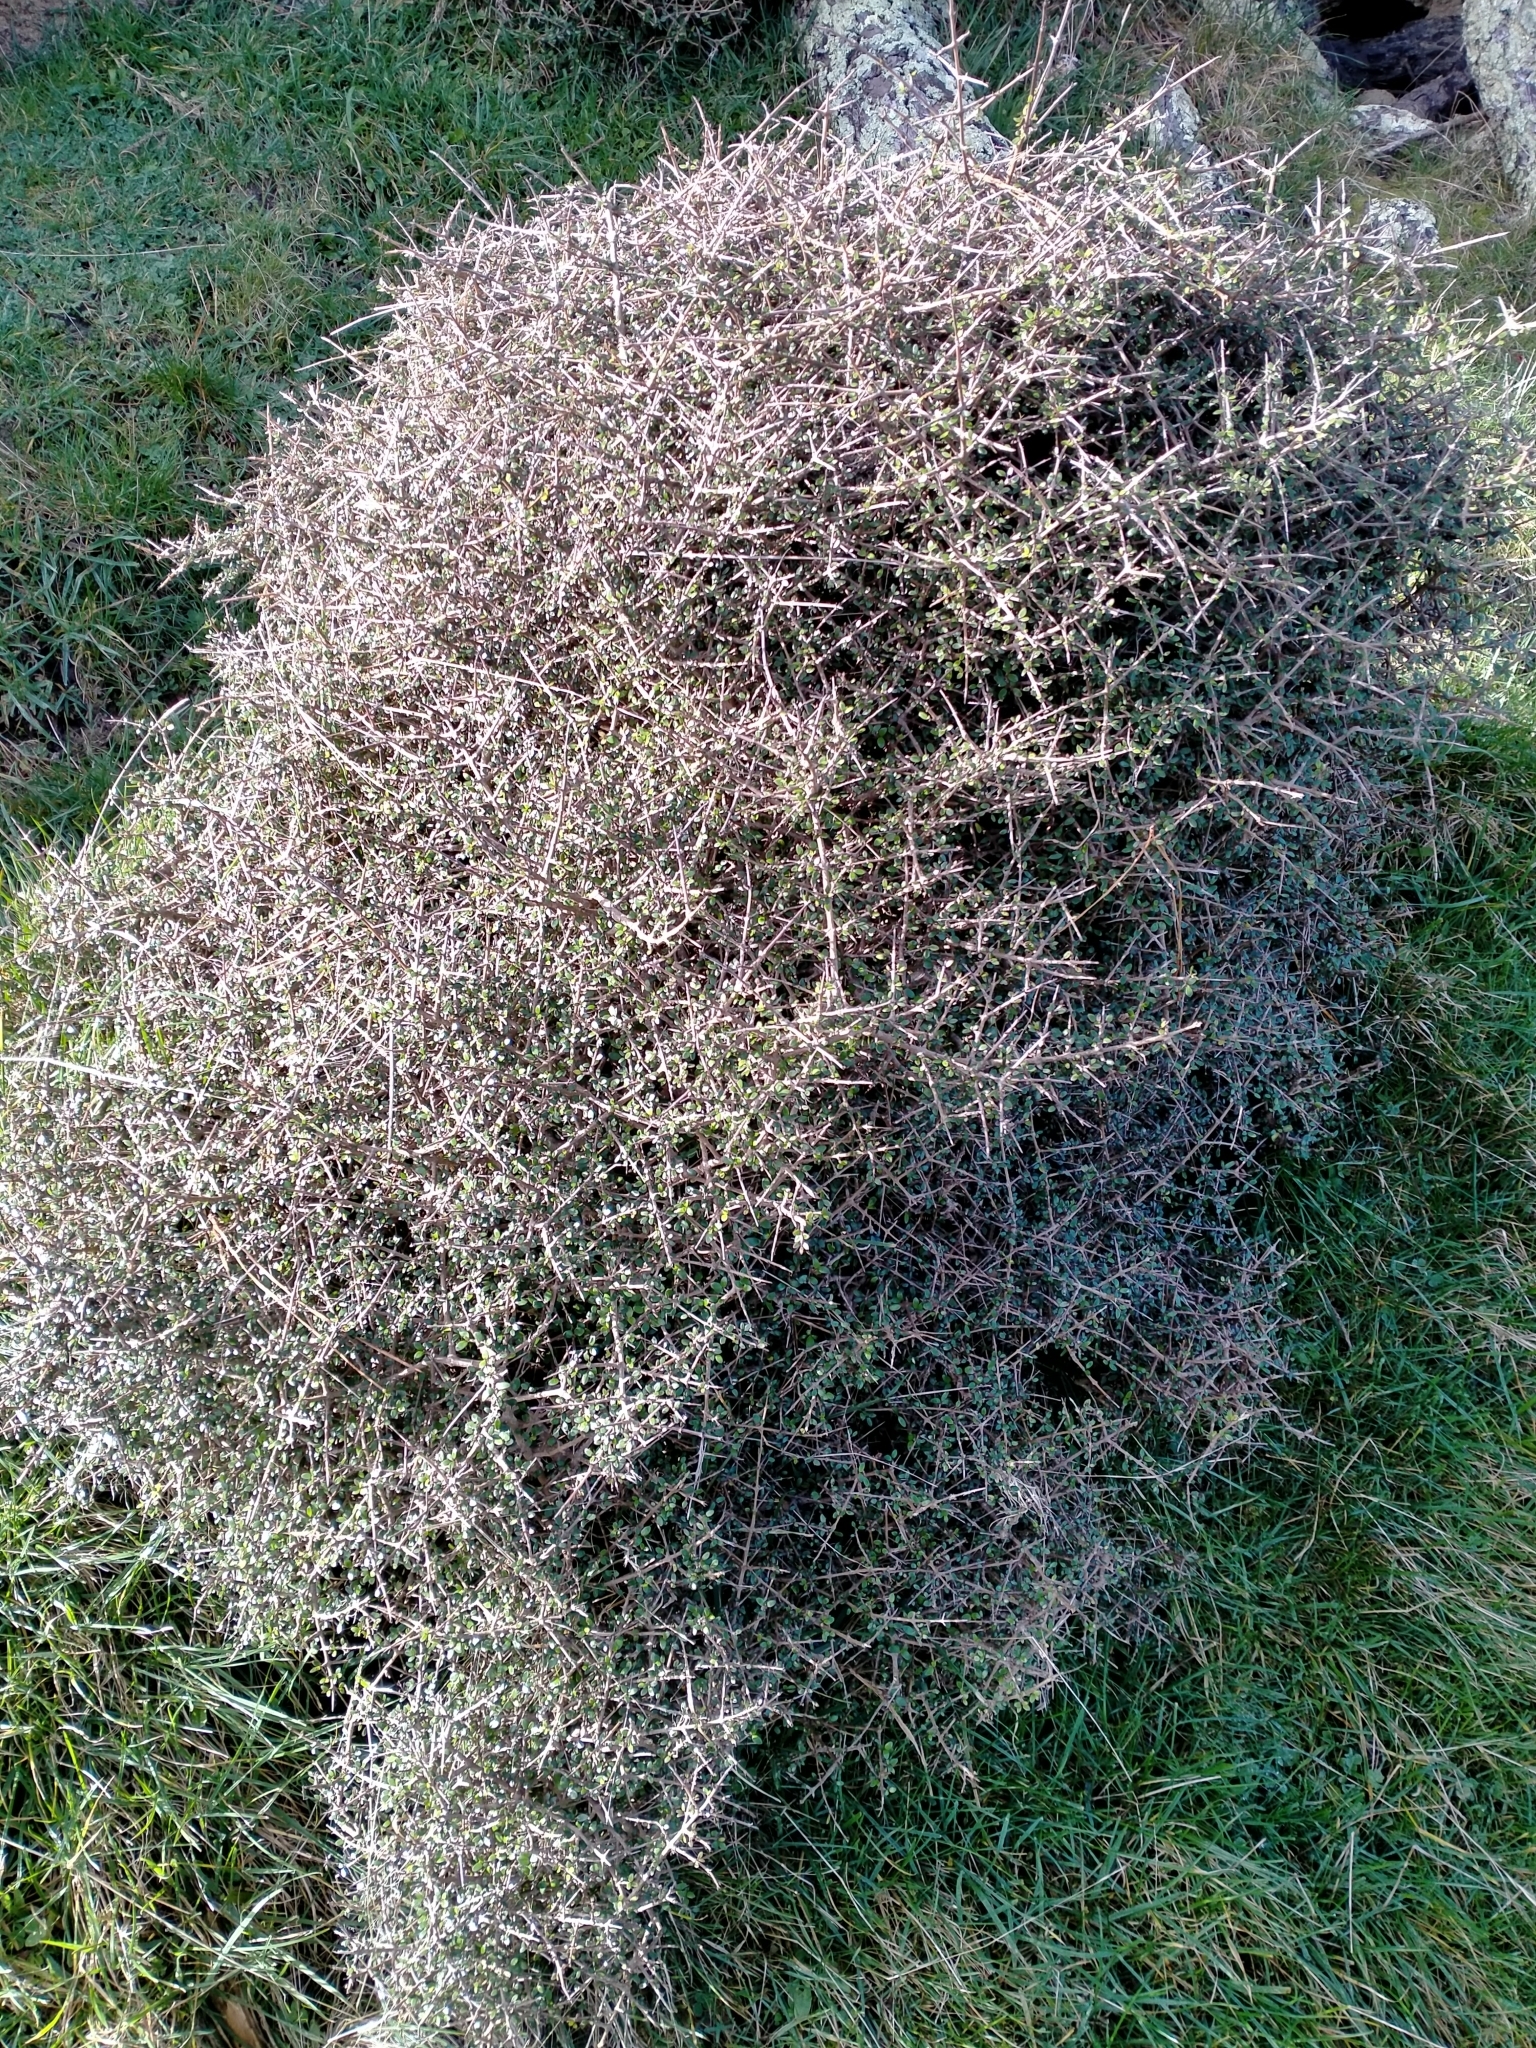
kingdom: Plantae
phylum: Tracheophyta
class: Magnoliopsida
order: Gentianales
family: Rubiaceae
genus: Coprosma
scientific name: Coprosma propinqua
